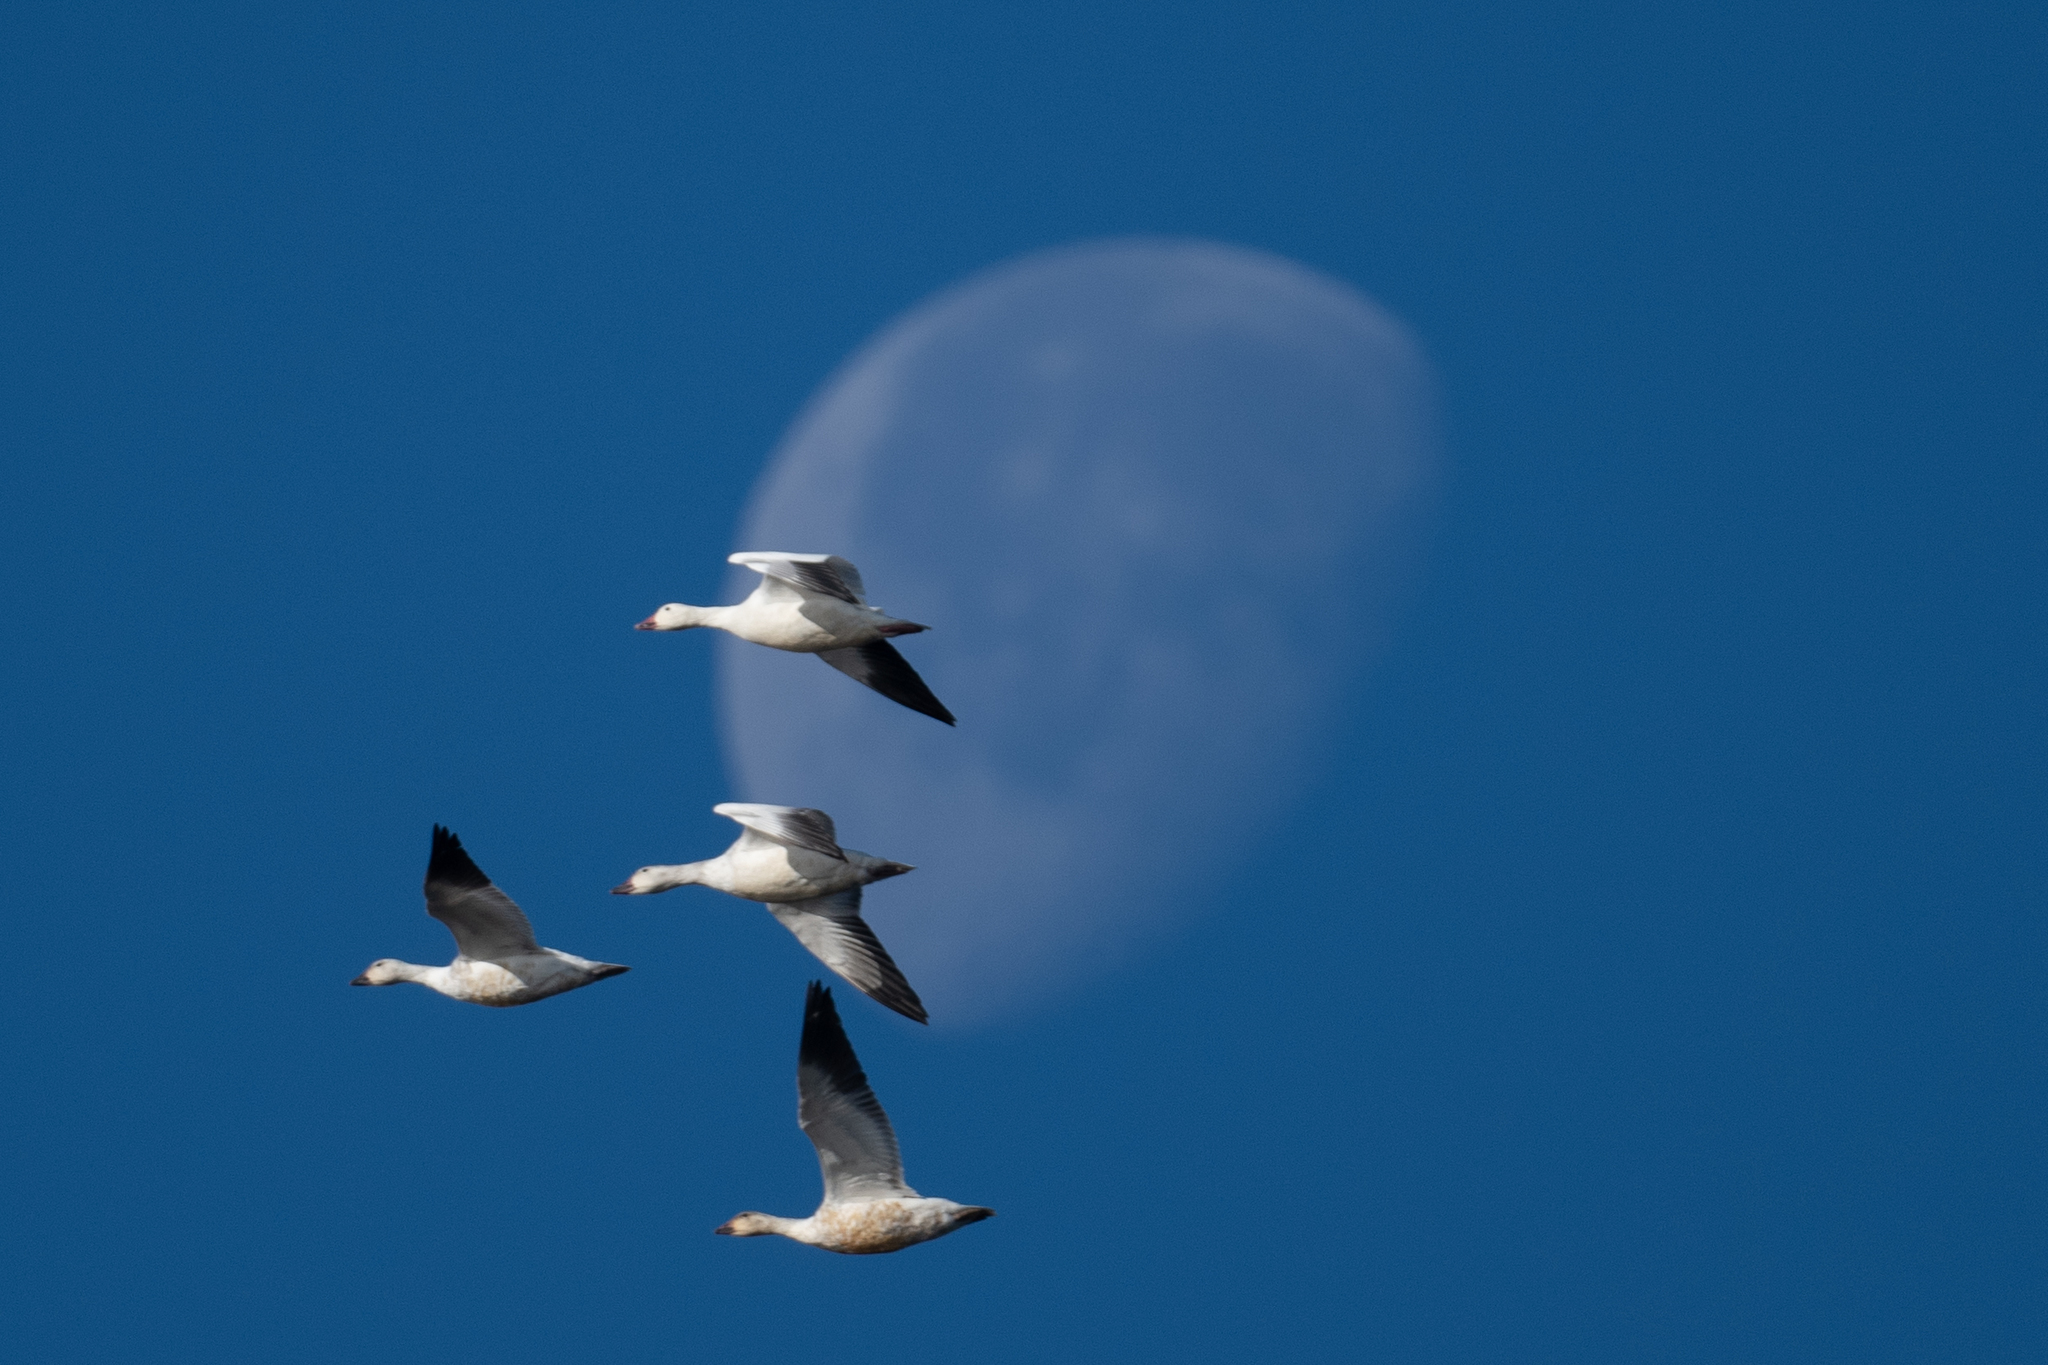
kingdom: Animalia
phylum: Chordata
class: Aves
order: Anseriformes
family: Anatidae
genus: Anser
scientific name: Anser caerulescens
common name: Snow goose
